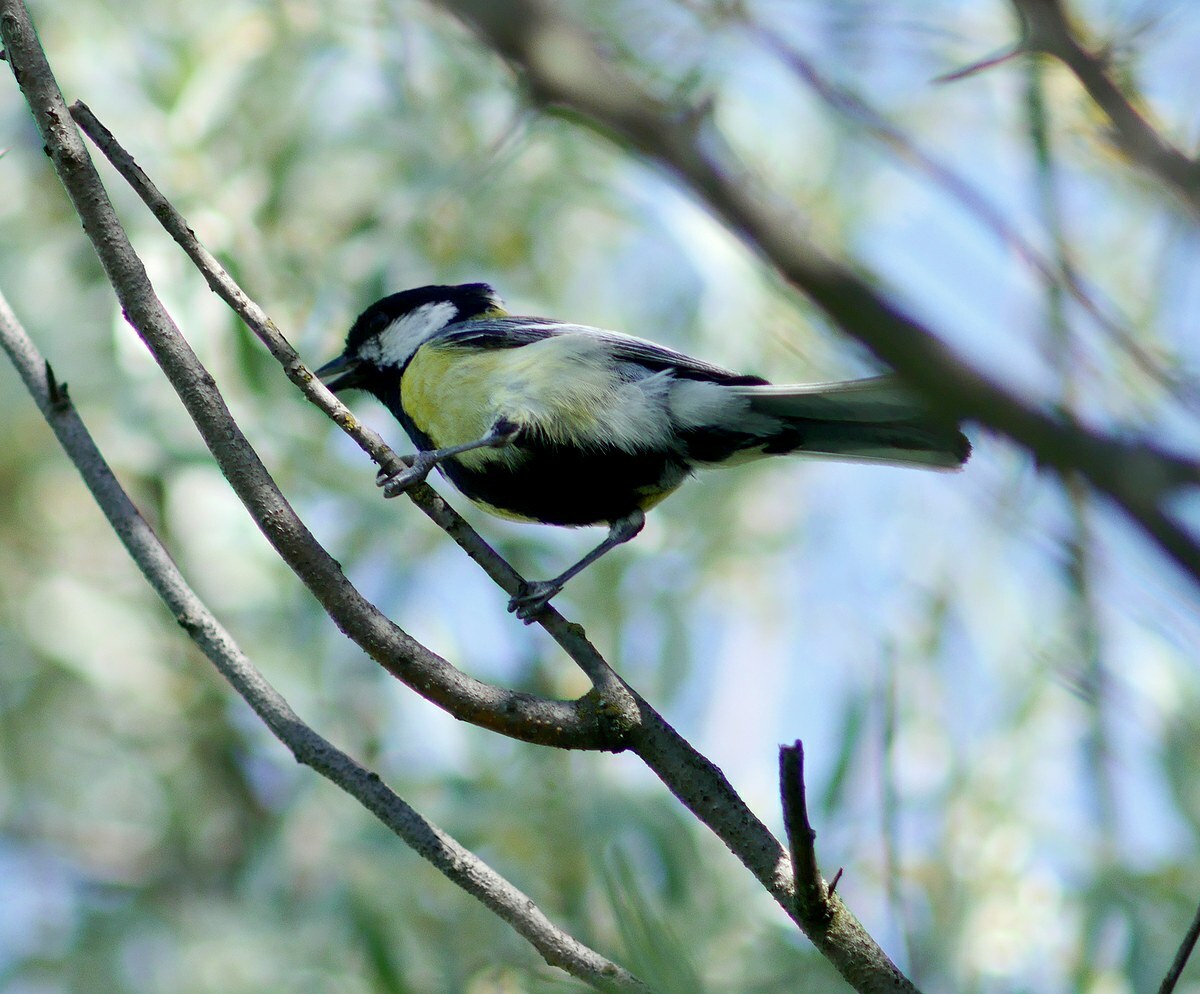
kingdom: Animalia
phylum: Chordata
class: Aves
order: Passeriformes
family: Paridae
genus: Parus
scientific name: Parus major
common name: Great tit
